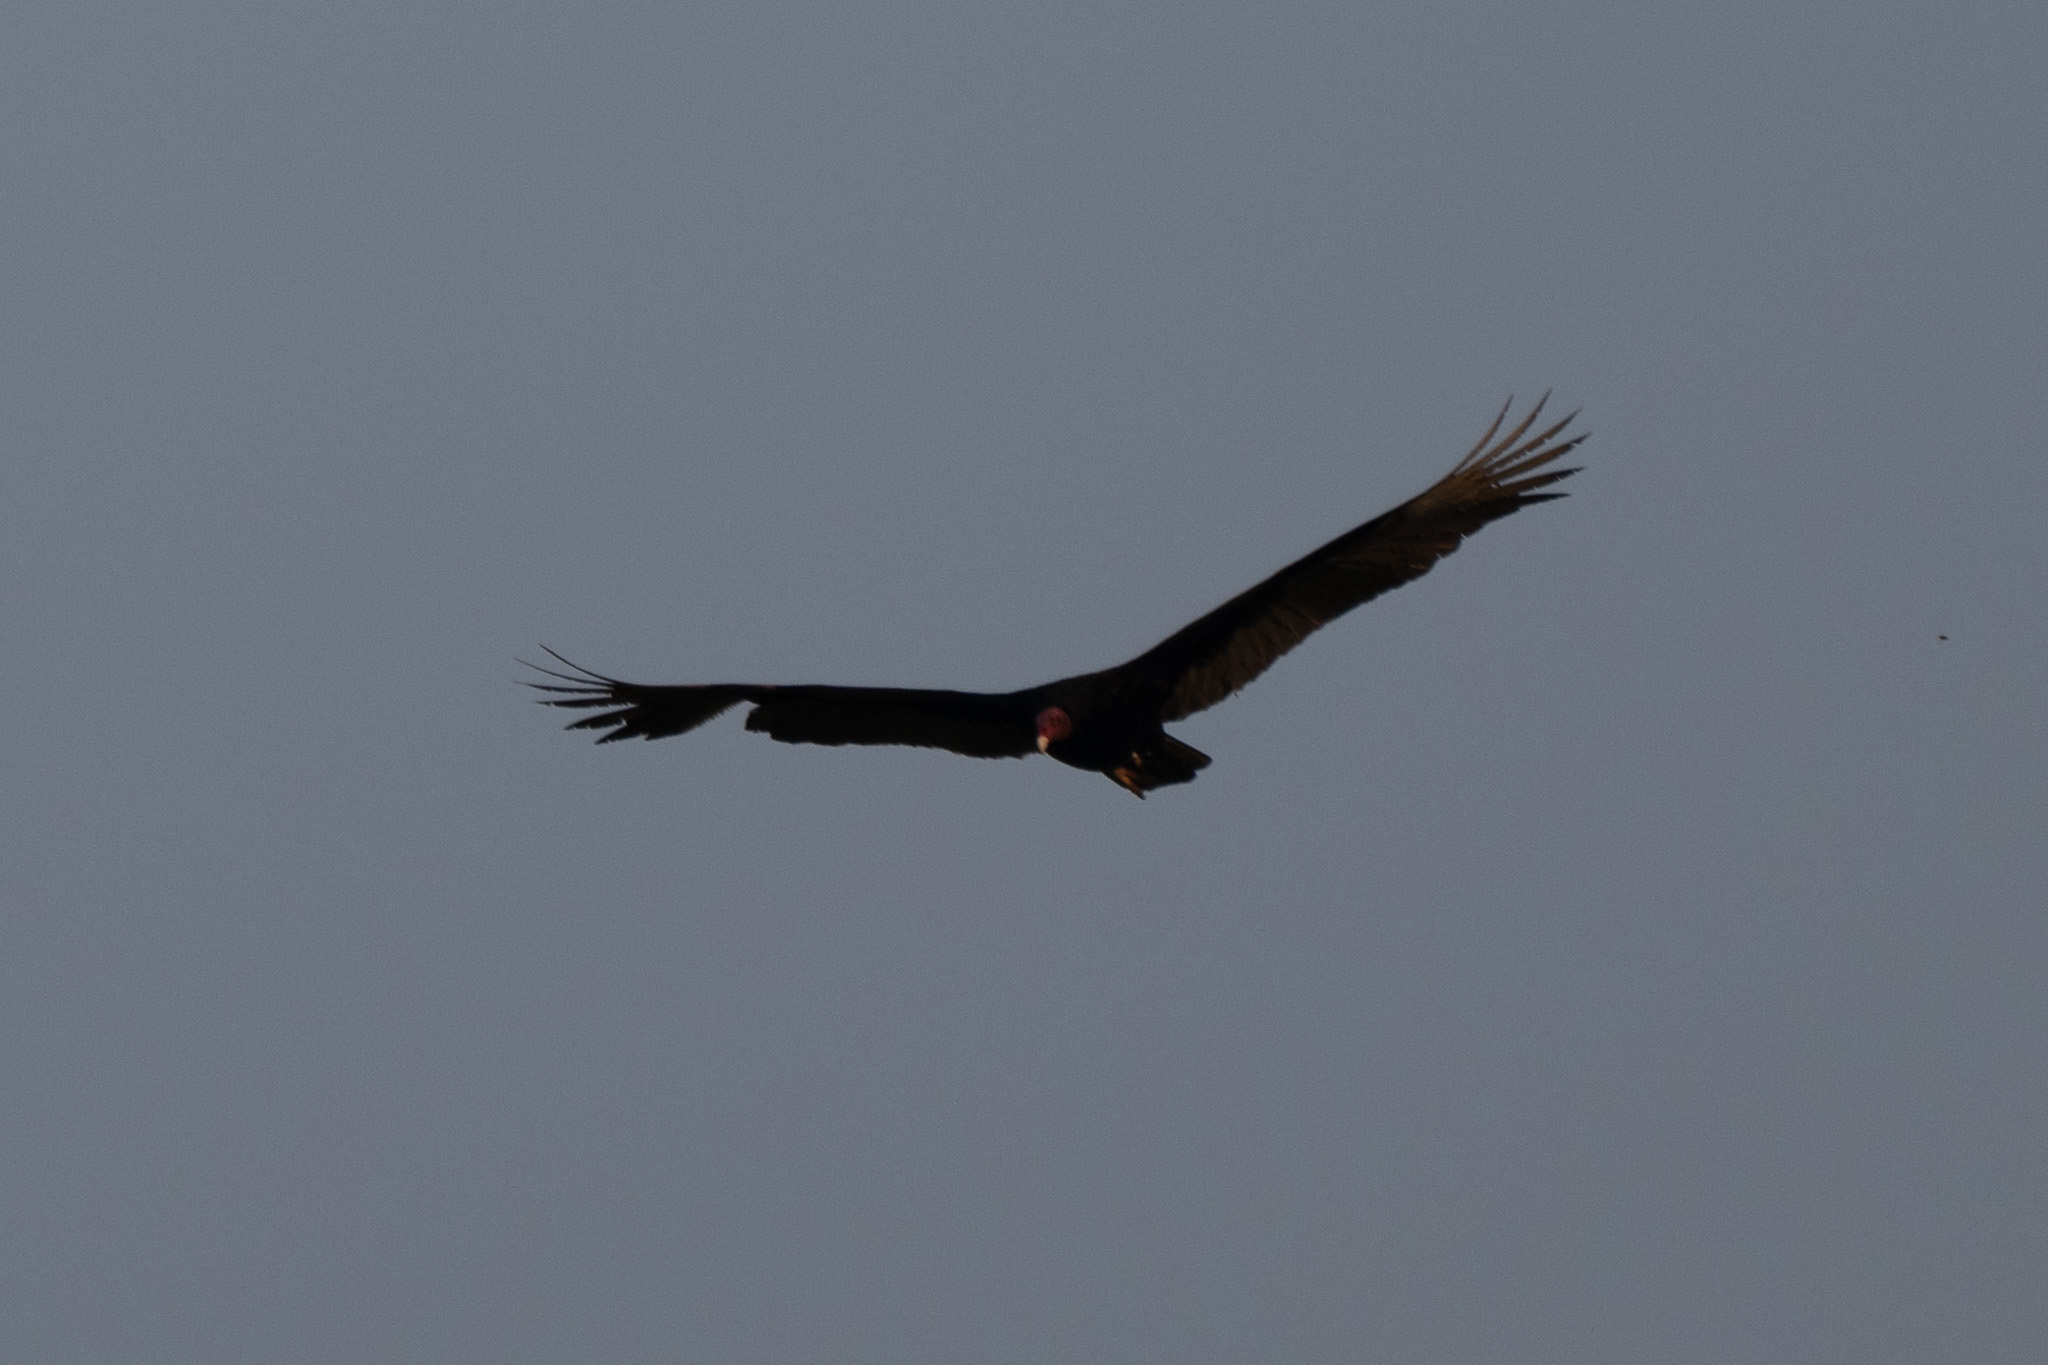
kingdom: Animalia
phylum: Chordata
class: Aves
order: Accipitriformes
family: Cathartidae
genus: Cathartes
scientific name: Cathartes aura
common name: Turkey vulture
